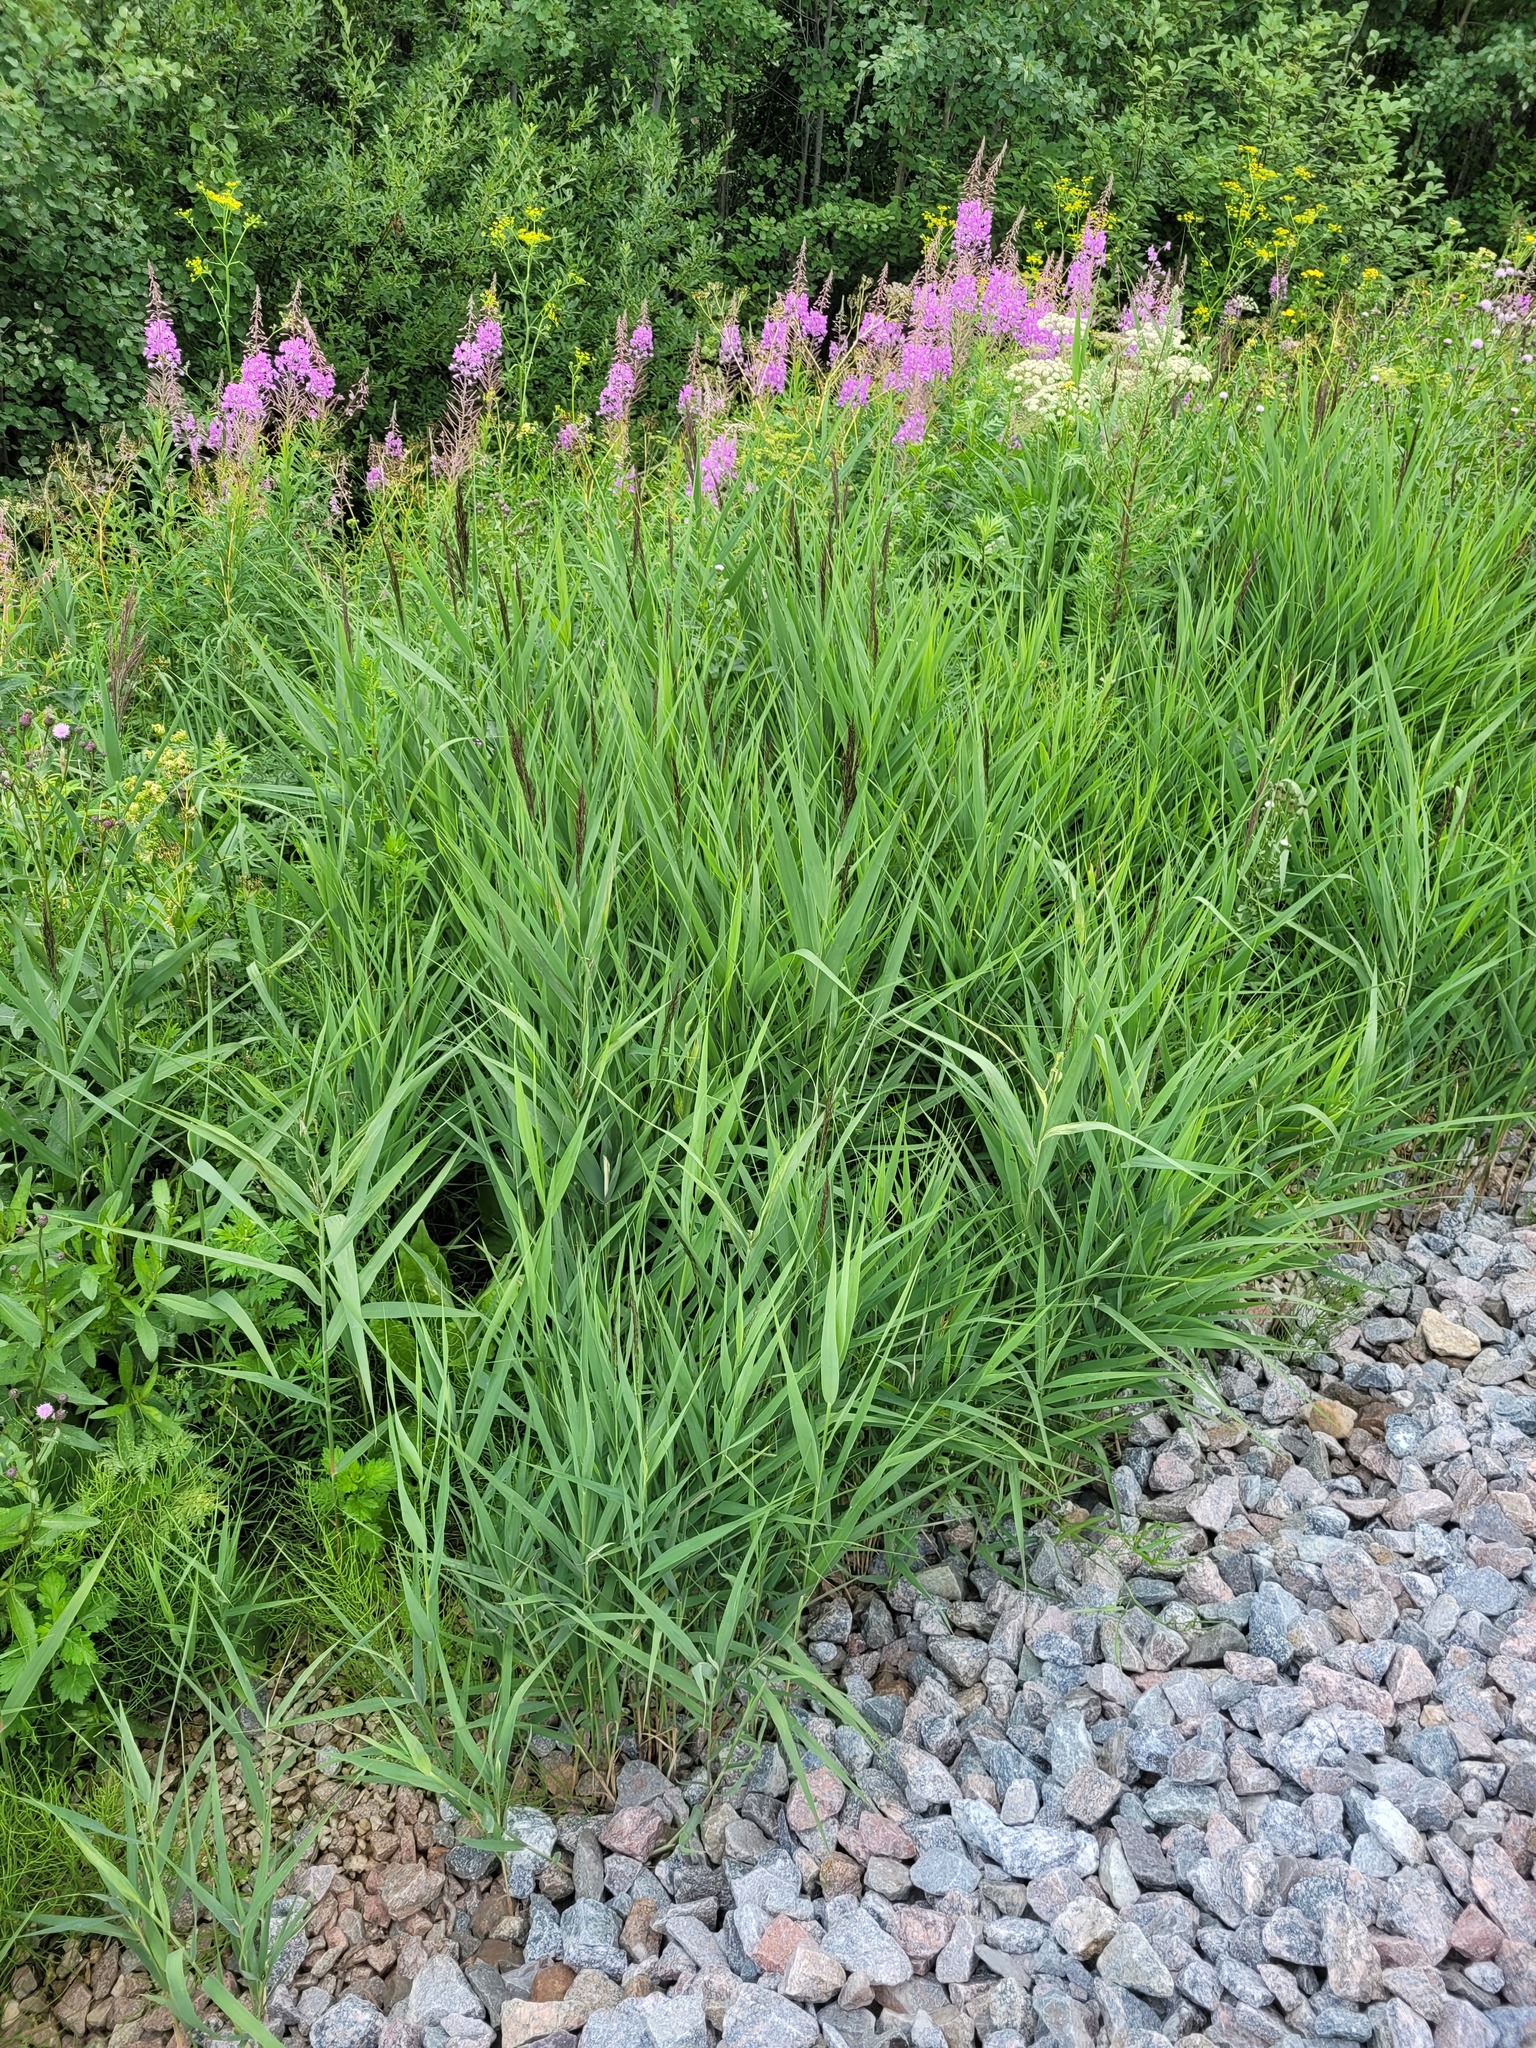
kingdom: Plantae
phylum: Tracheophyta
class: Liliopsida
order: Poales
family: Poaceae
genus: Phragmites
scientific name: Phragmites australis
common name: Common reed
